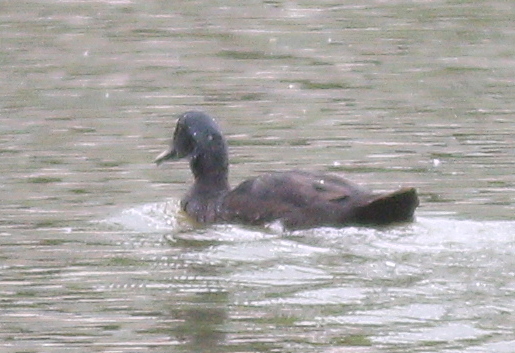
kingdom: Animalia
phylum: Chordata
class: Aves
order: Anseriformes
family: Anatidae
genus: Anas
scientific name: Anas platyrhynchos
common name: Mallard
